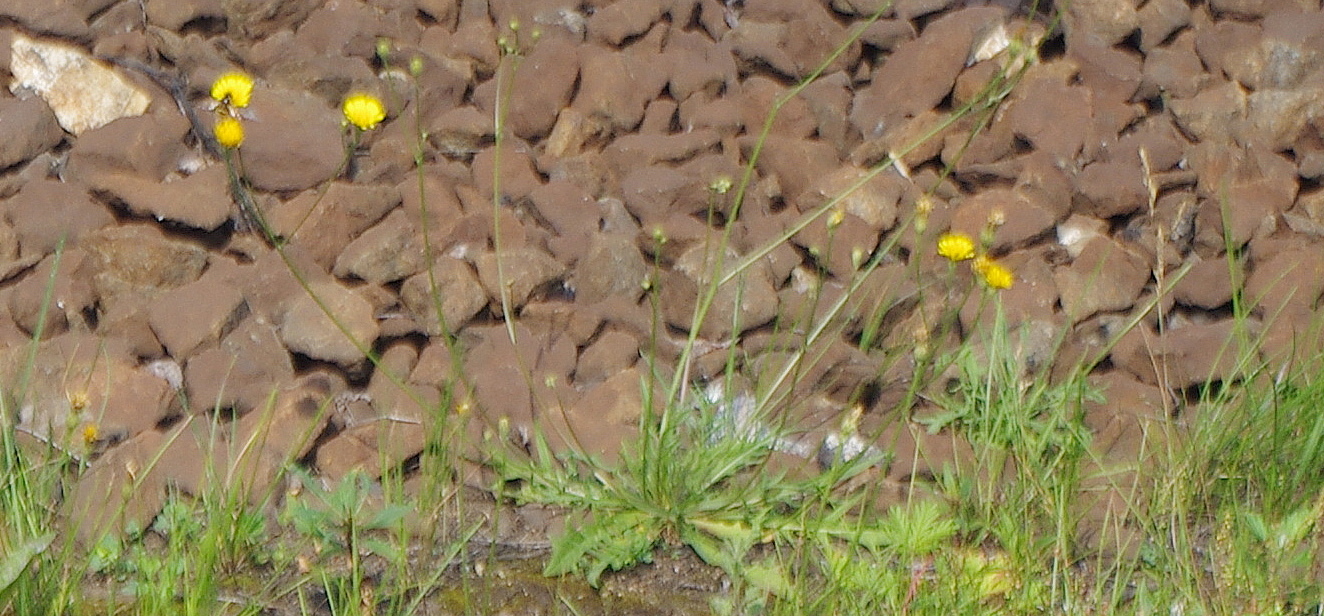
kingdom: Plantae
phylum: Tracheophyta
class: Magnoliopsida
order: Asterales
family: Asteraceae
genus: Scorzoneroides
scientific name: Scorzoneroides autumnalis
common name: Autumn hawkbit
